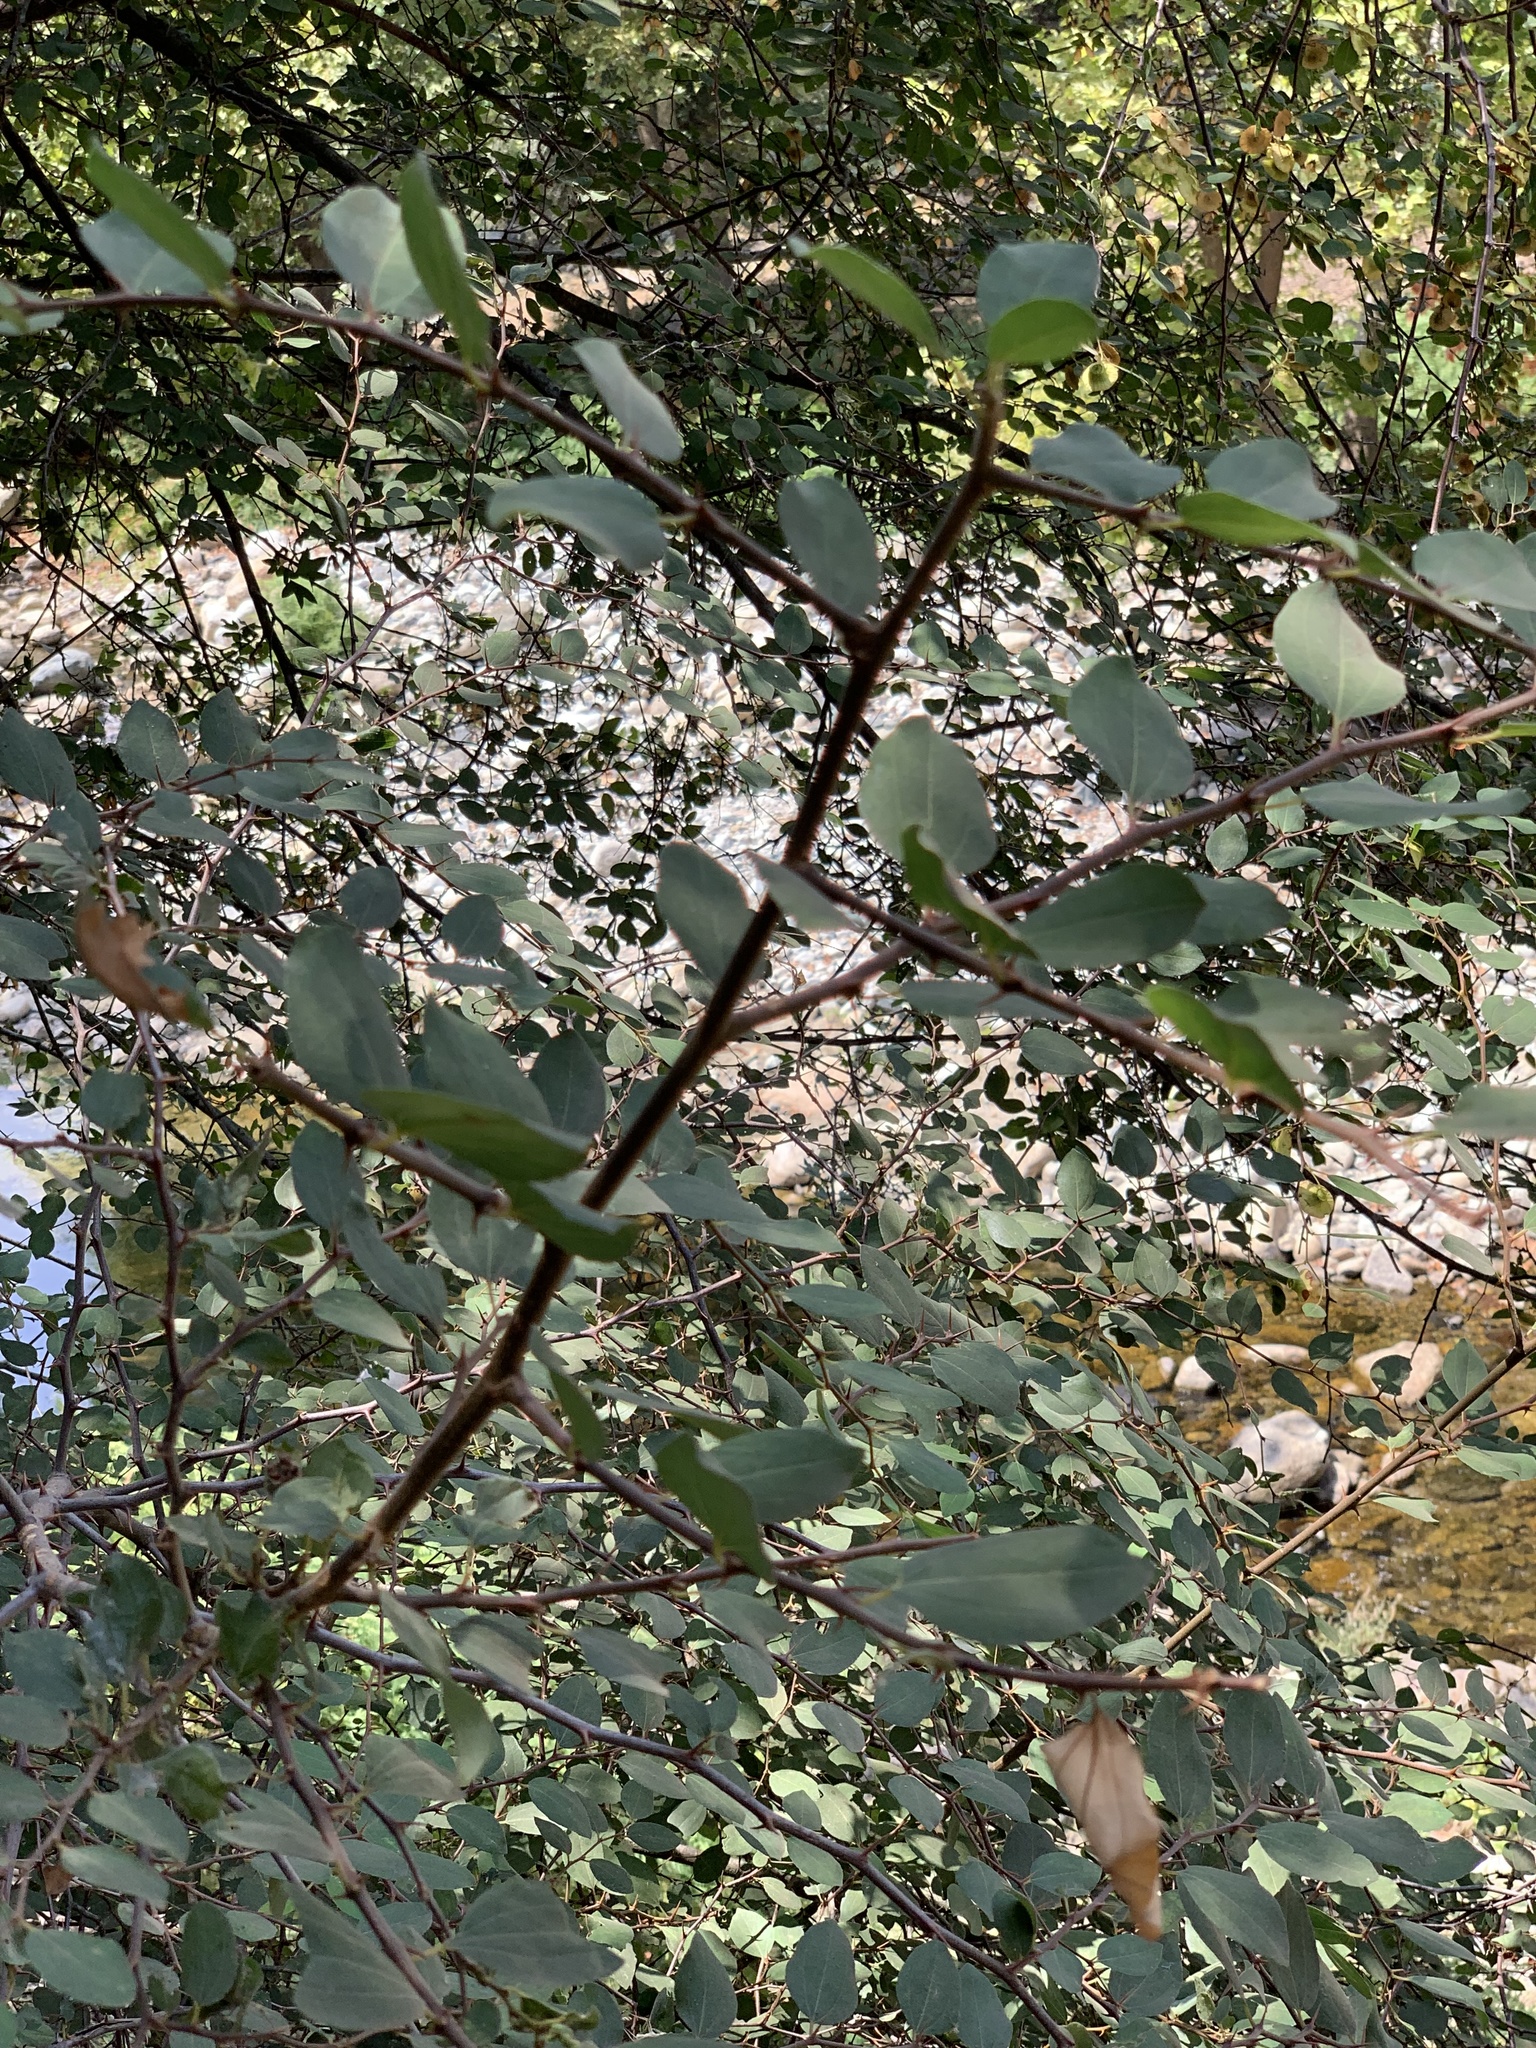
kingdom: Plantae
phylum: Tracheophyta
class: Magnoliopsida
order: Rosales
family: Rhamnaceae
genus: Paliurus
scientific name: Paliurus spina-christi
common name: Jeruselem thorn
